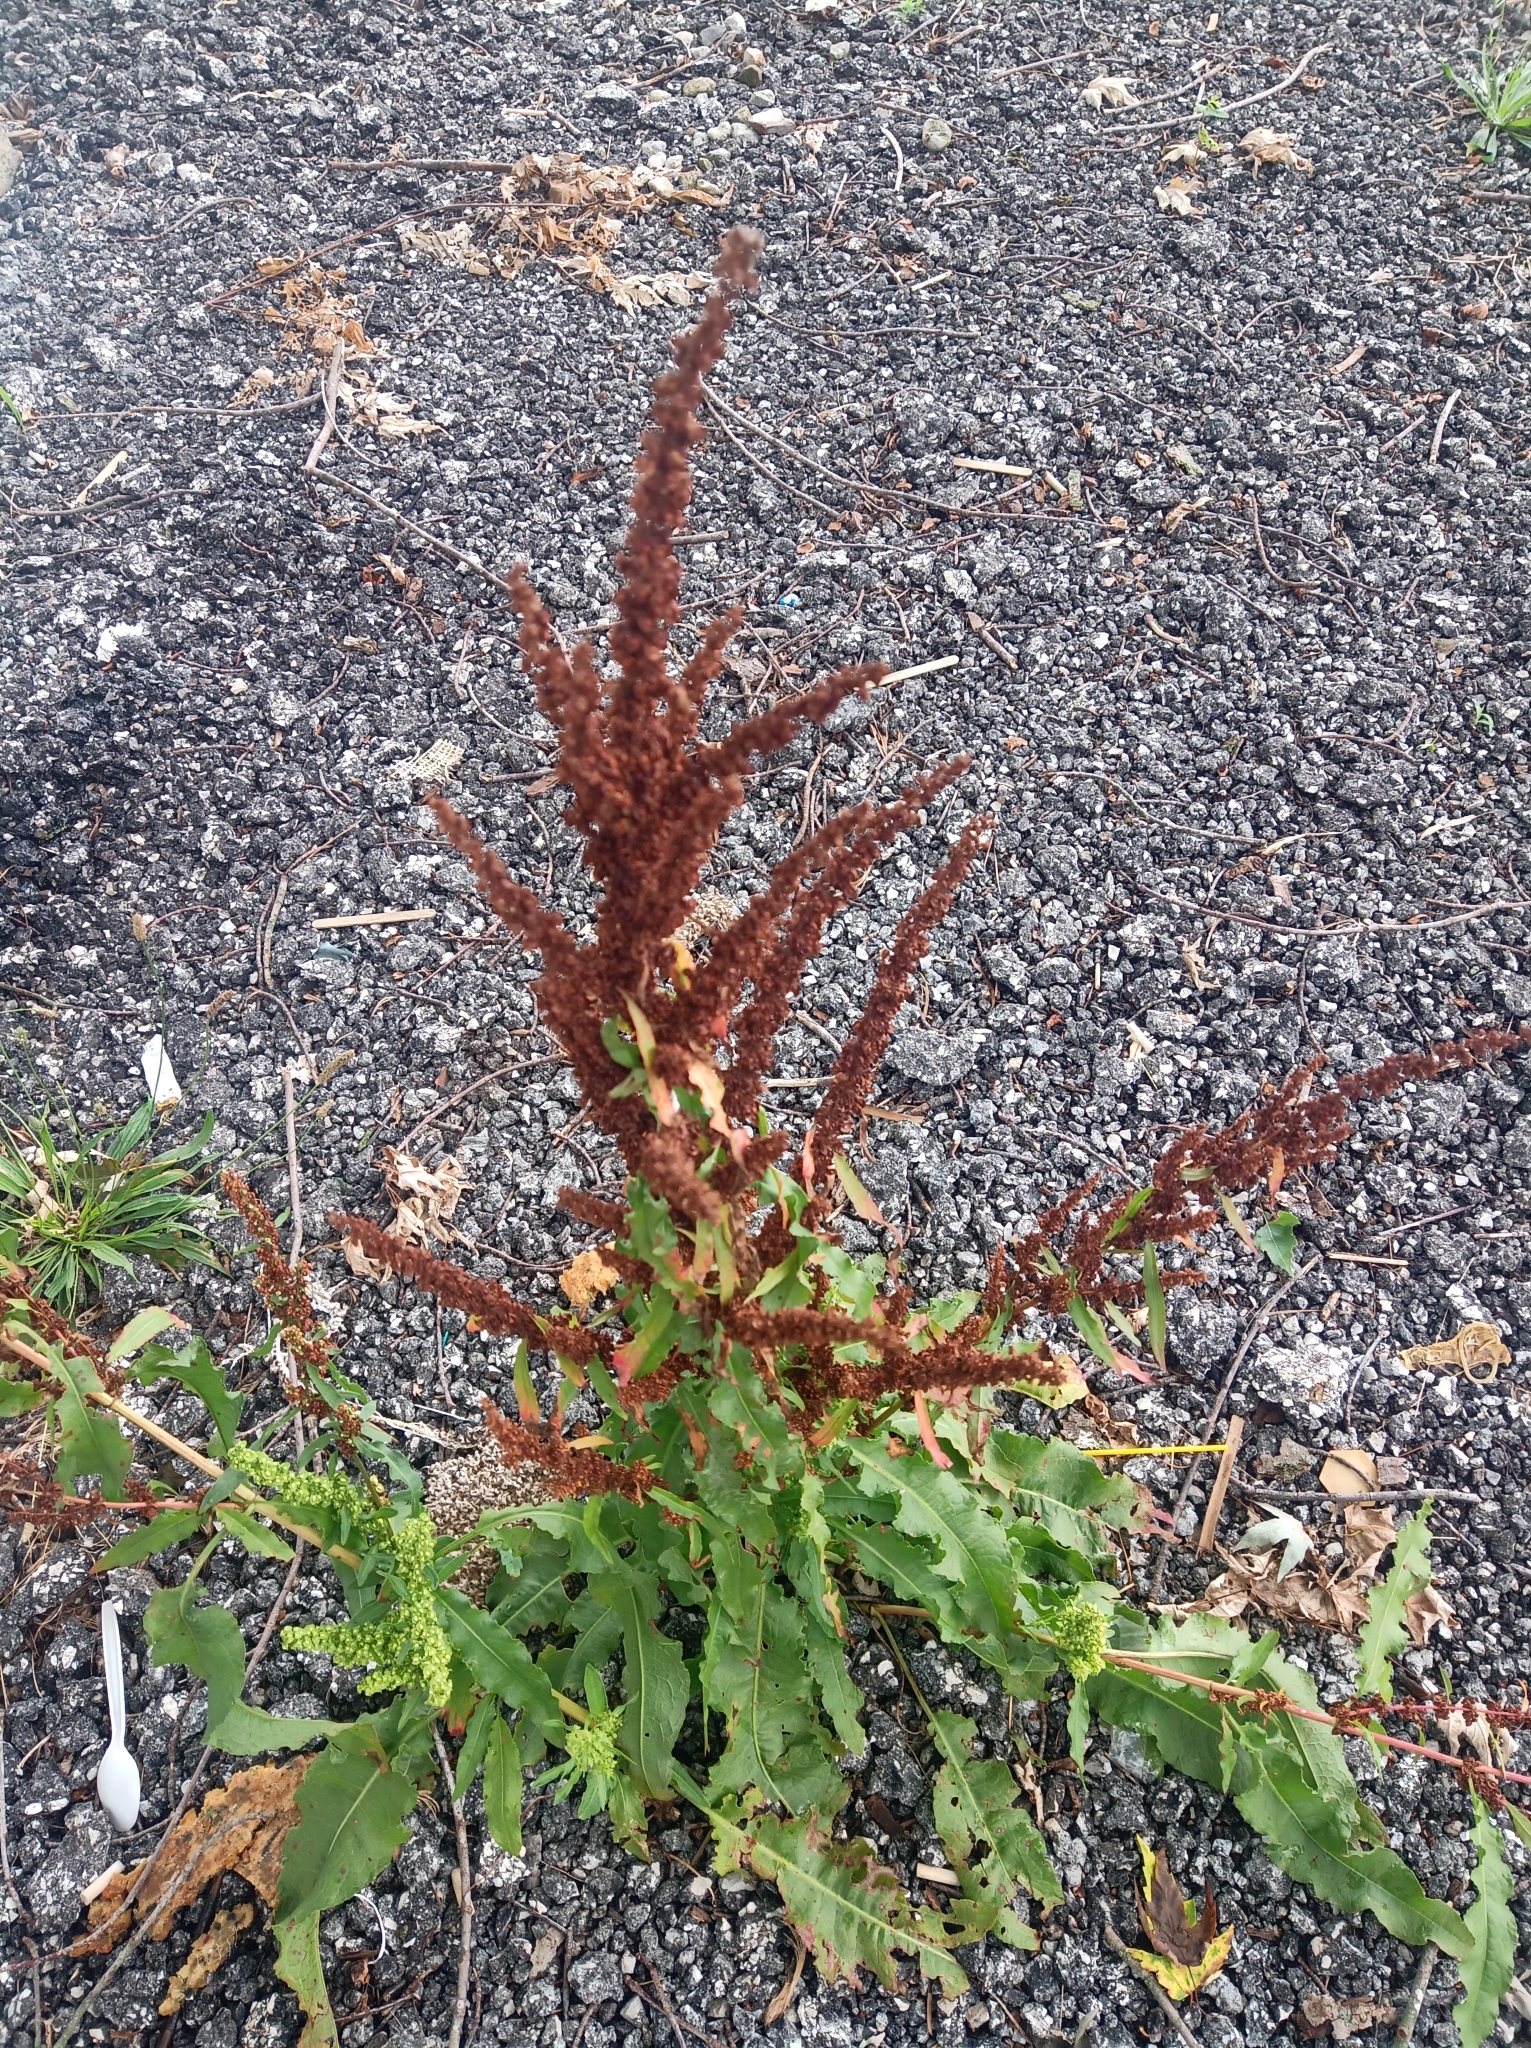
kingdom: Plantae
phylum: Tracheophyta
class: Magnoliopsida
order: Caryophyllales
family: Polygonaceae
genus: Rumex
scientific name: Rumex crispus
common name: Curled dock
